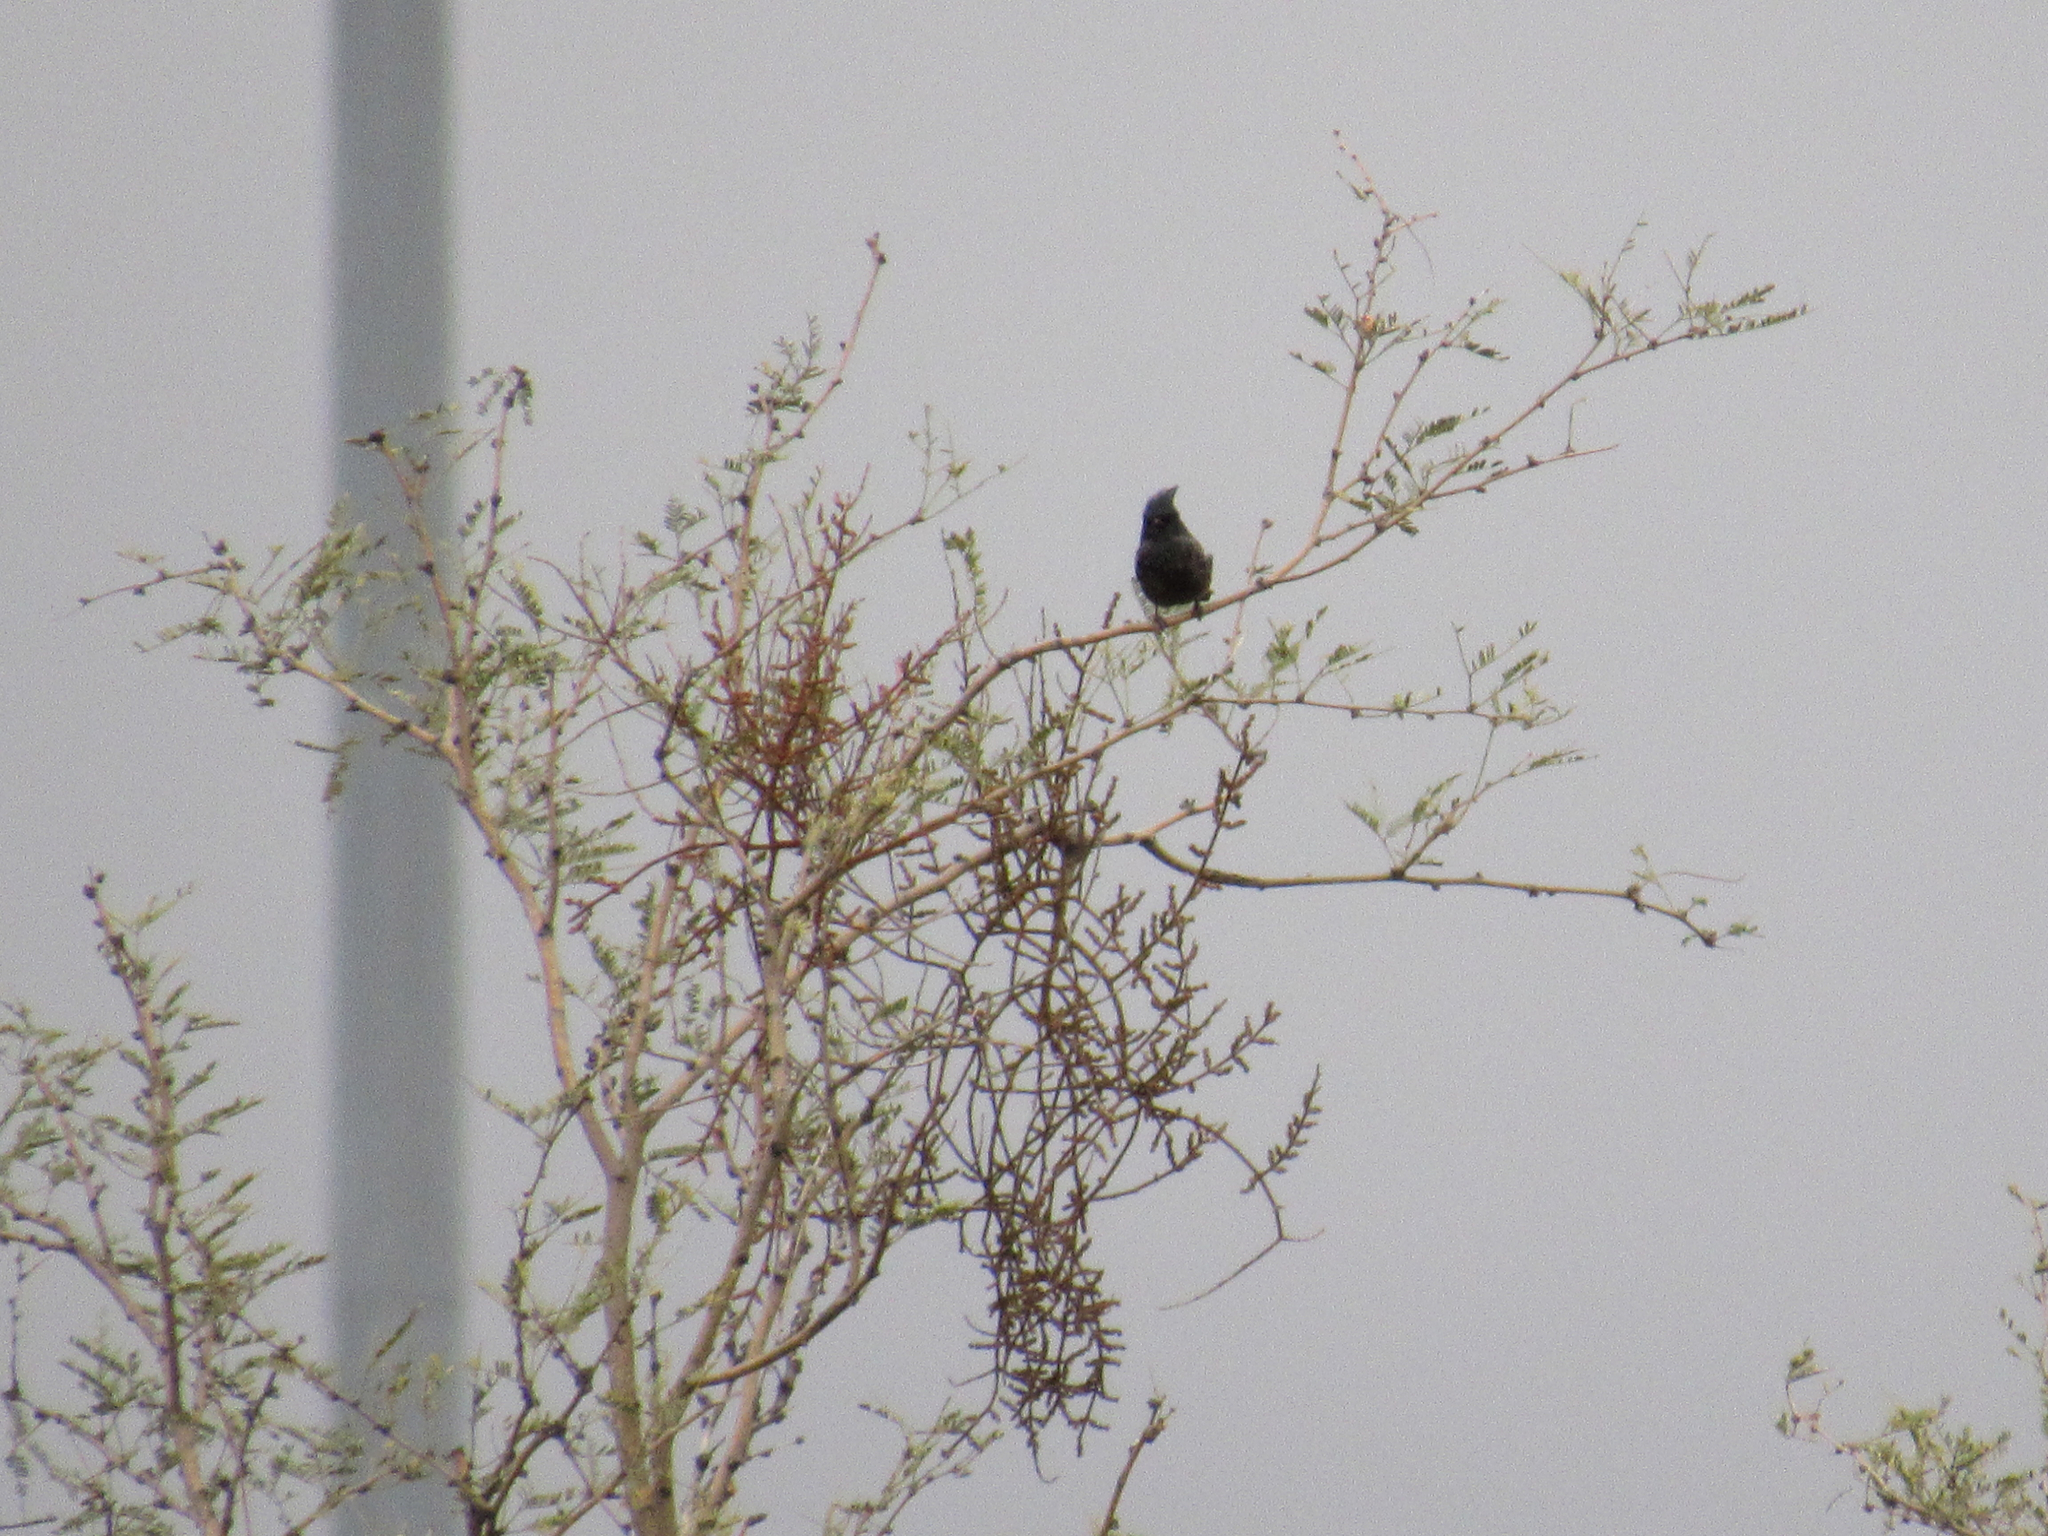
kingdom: Animalia
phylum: Chordata
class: Aves
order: Passeriformes
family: Ptilogonatidae
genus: Phainopepla
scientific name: Phainopepla nitens
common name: Phainopepla
